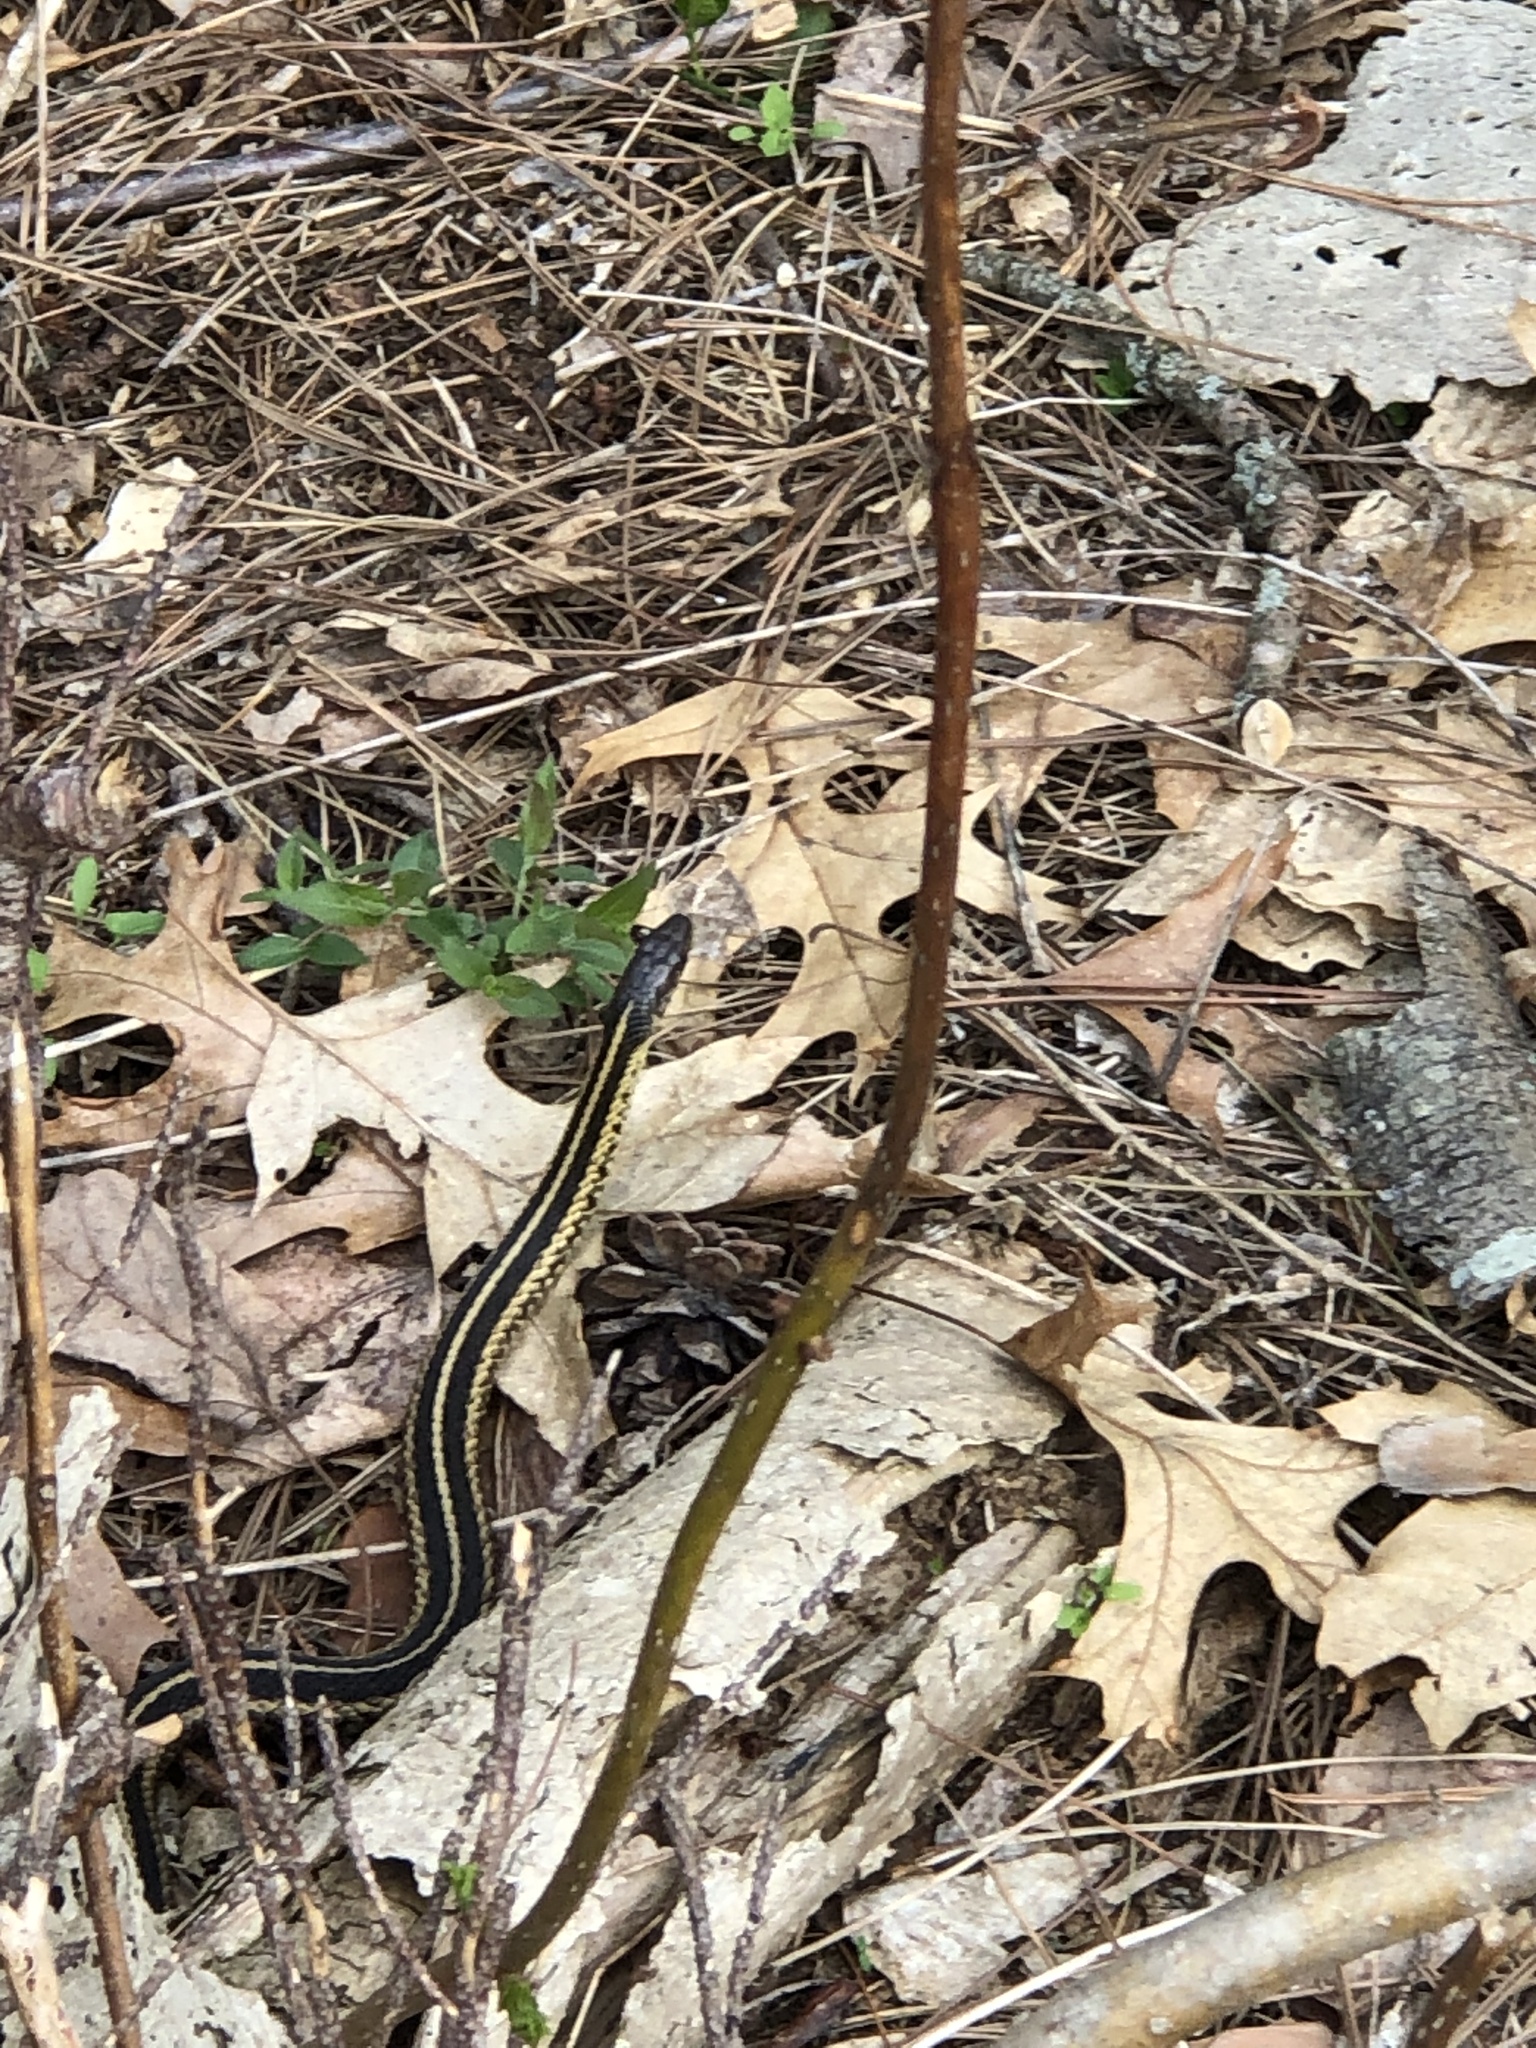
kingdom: Animalia
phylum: Chordata
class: Squamata
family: Colubridae
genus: Thamnophis
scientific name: Thamnophis sirtalis
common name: Common garter snake
